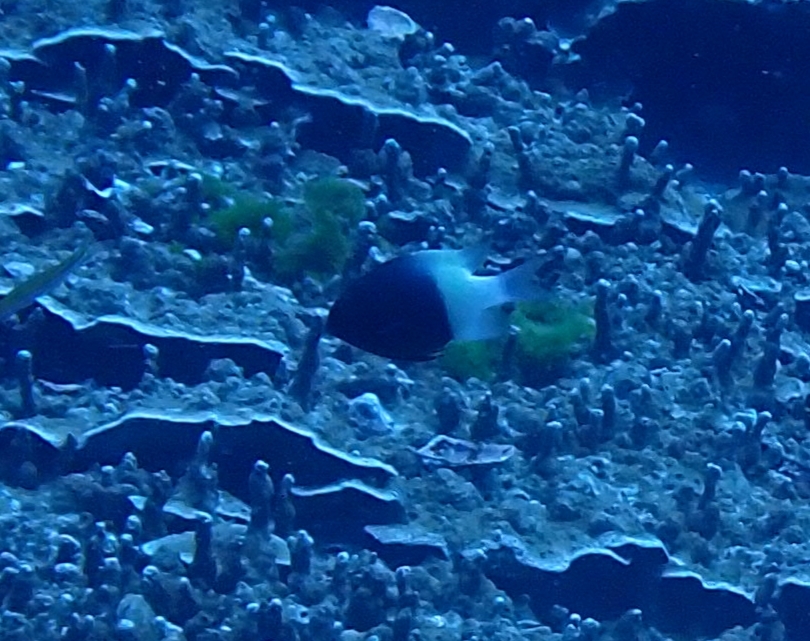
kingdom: Animalia
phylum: Chordata
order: Perciformes
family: Pomacentridae
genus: Chromis
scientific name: Chromis fieldi
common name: Chocolatedip chromis
